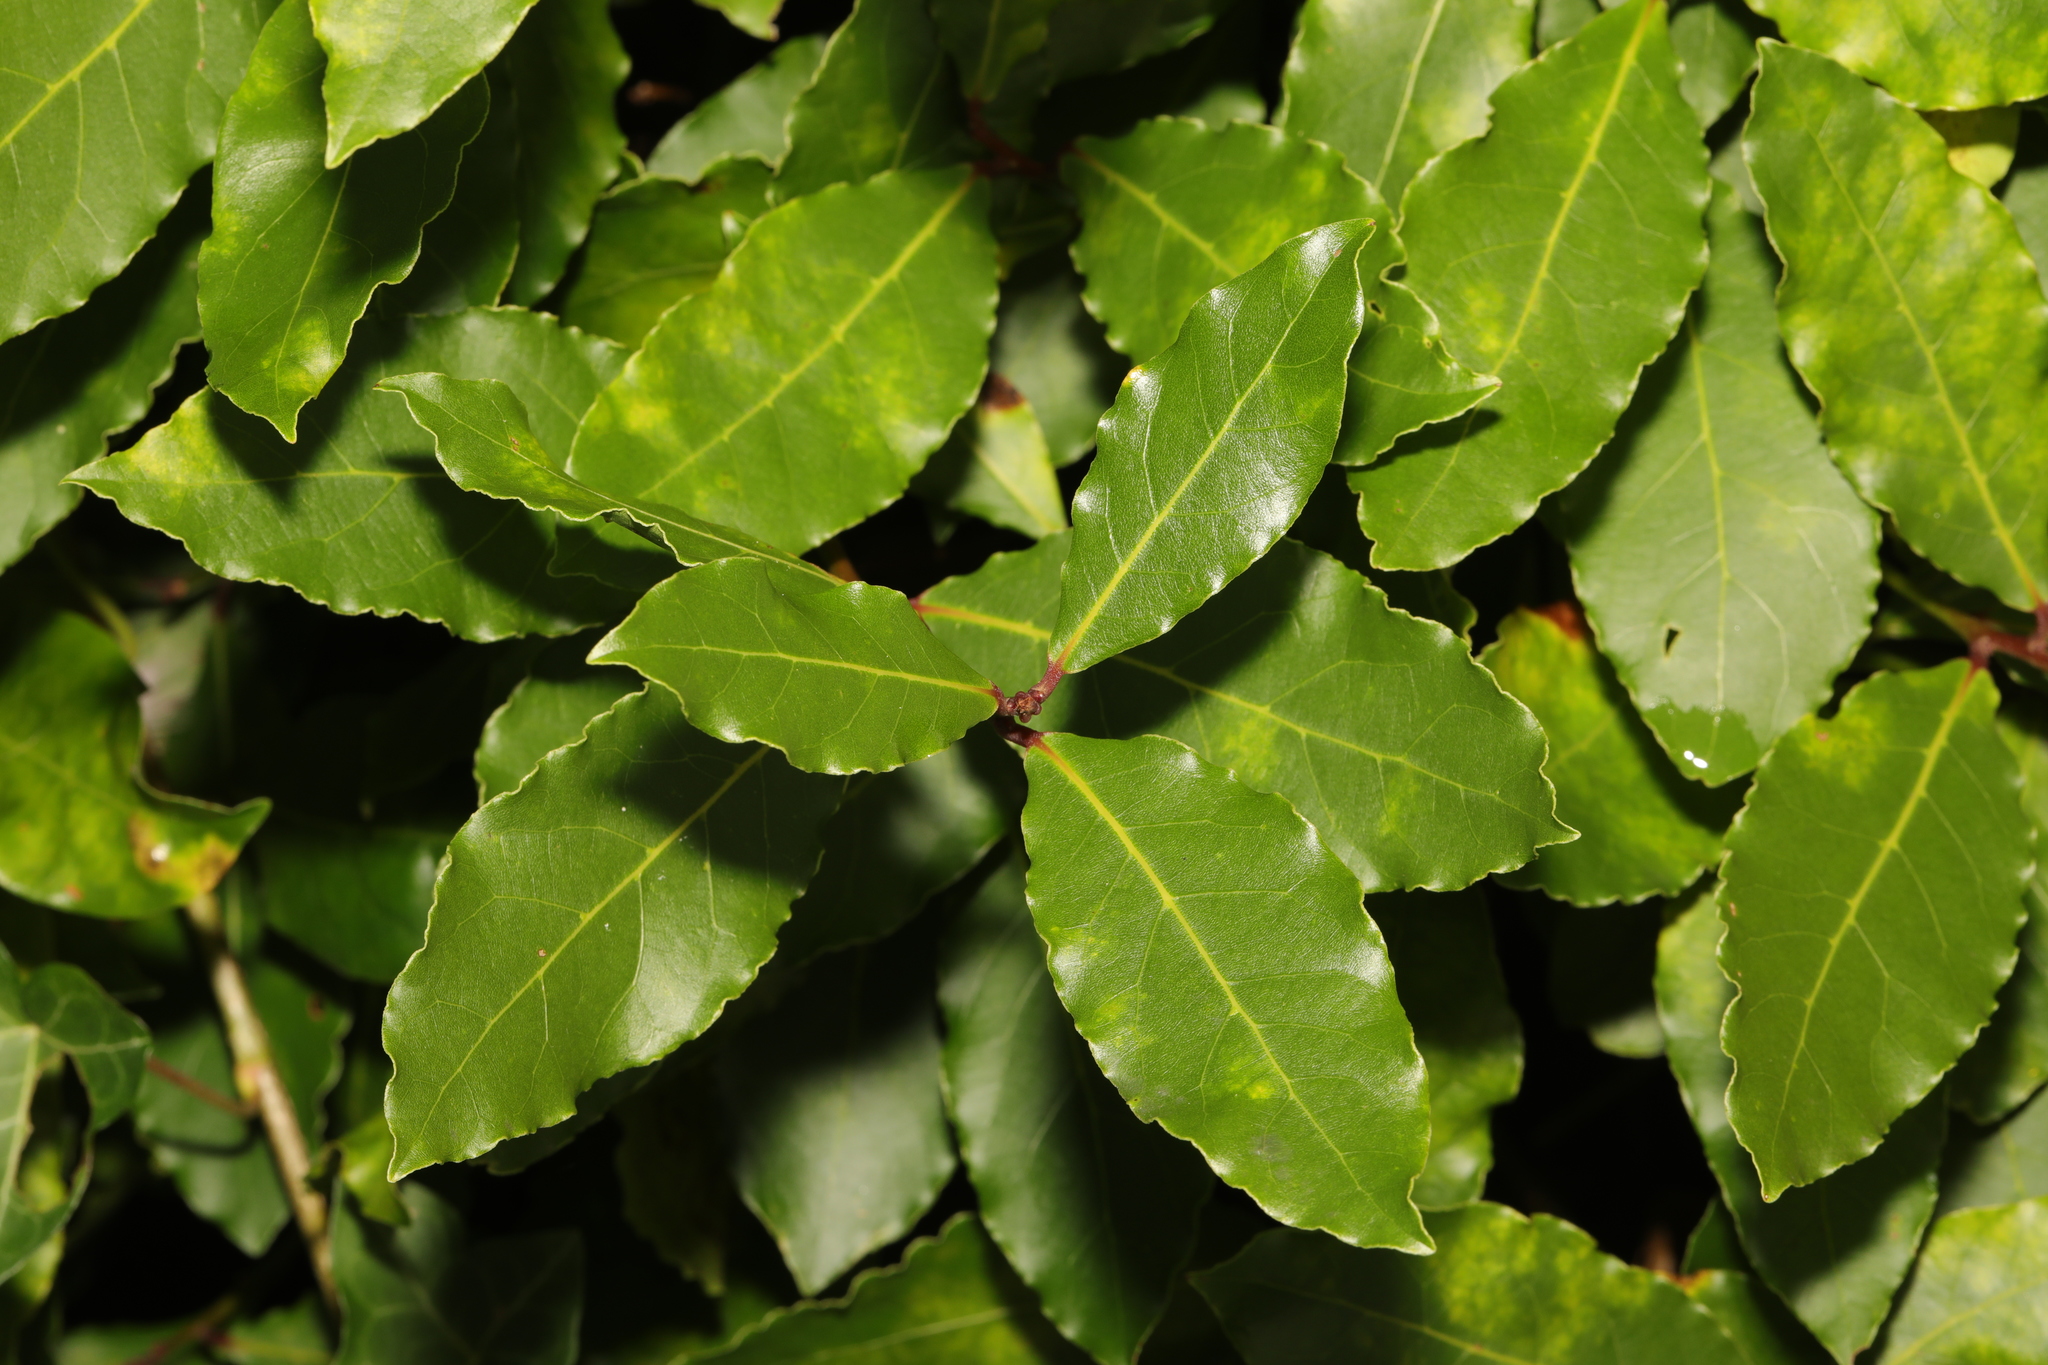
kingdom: Plantae
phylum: Tracheophyta
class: Magnoliopsida
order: Laurales
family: Lauraceae
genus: Laurus
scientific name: Laurus nobilis
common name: Bay
